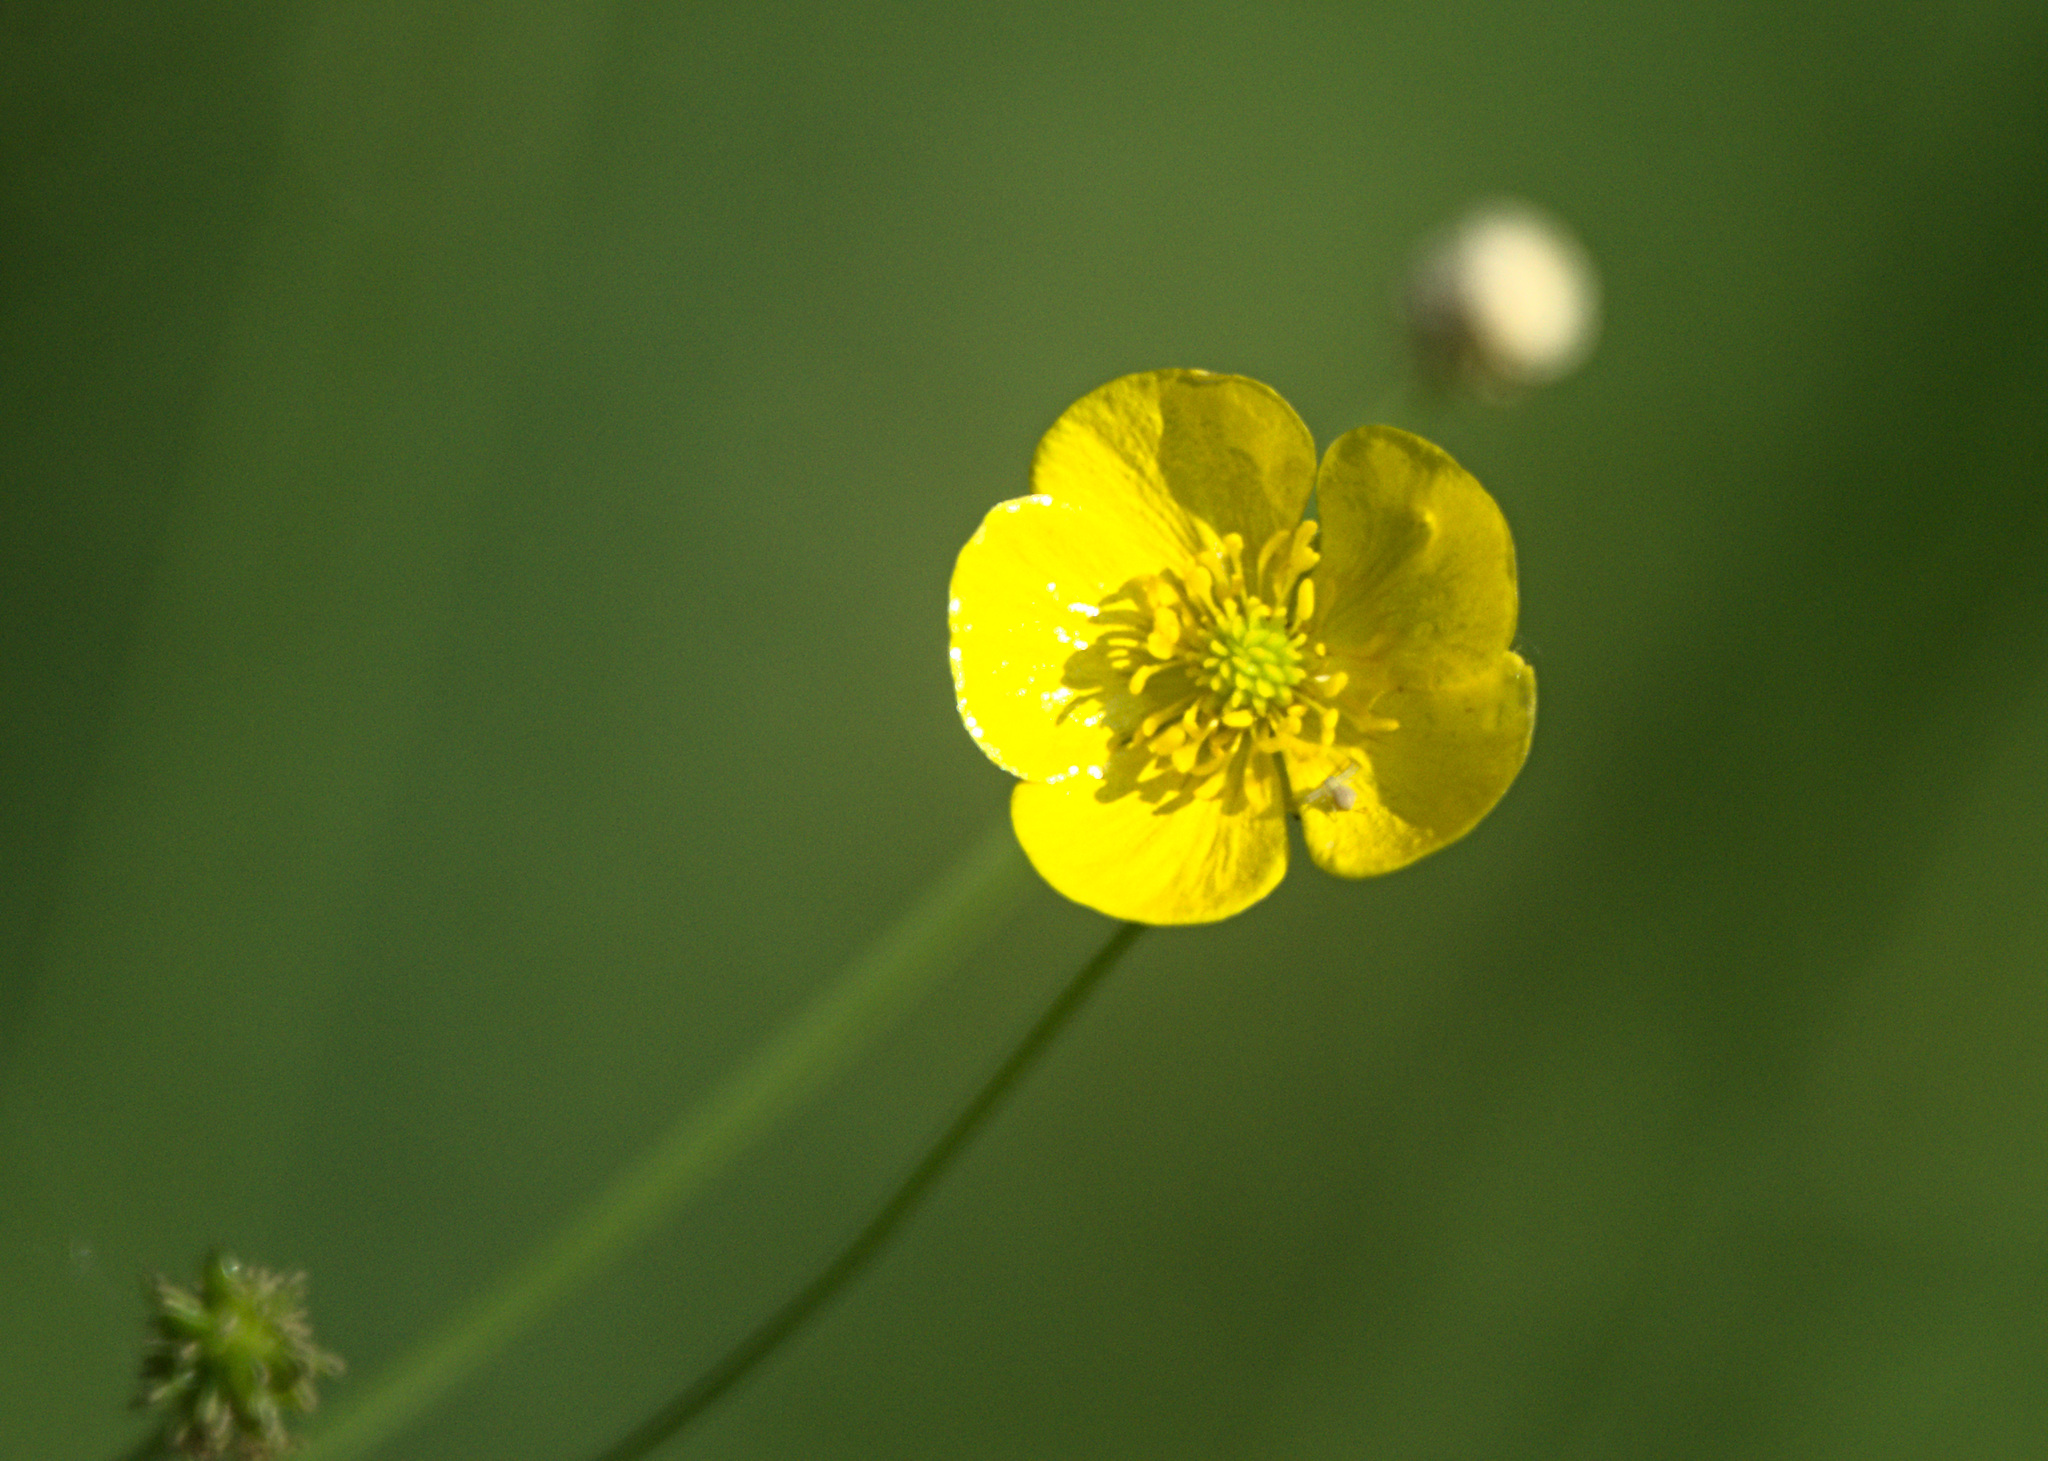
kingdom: Plantae
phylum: Tracheophyta
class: Magnoliopsida
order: Ranunculales
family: Ranunculaceae
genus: Ranunculus
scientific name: Ranunculus polyanthemos
